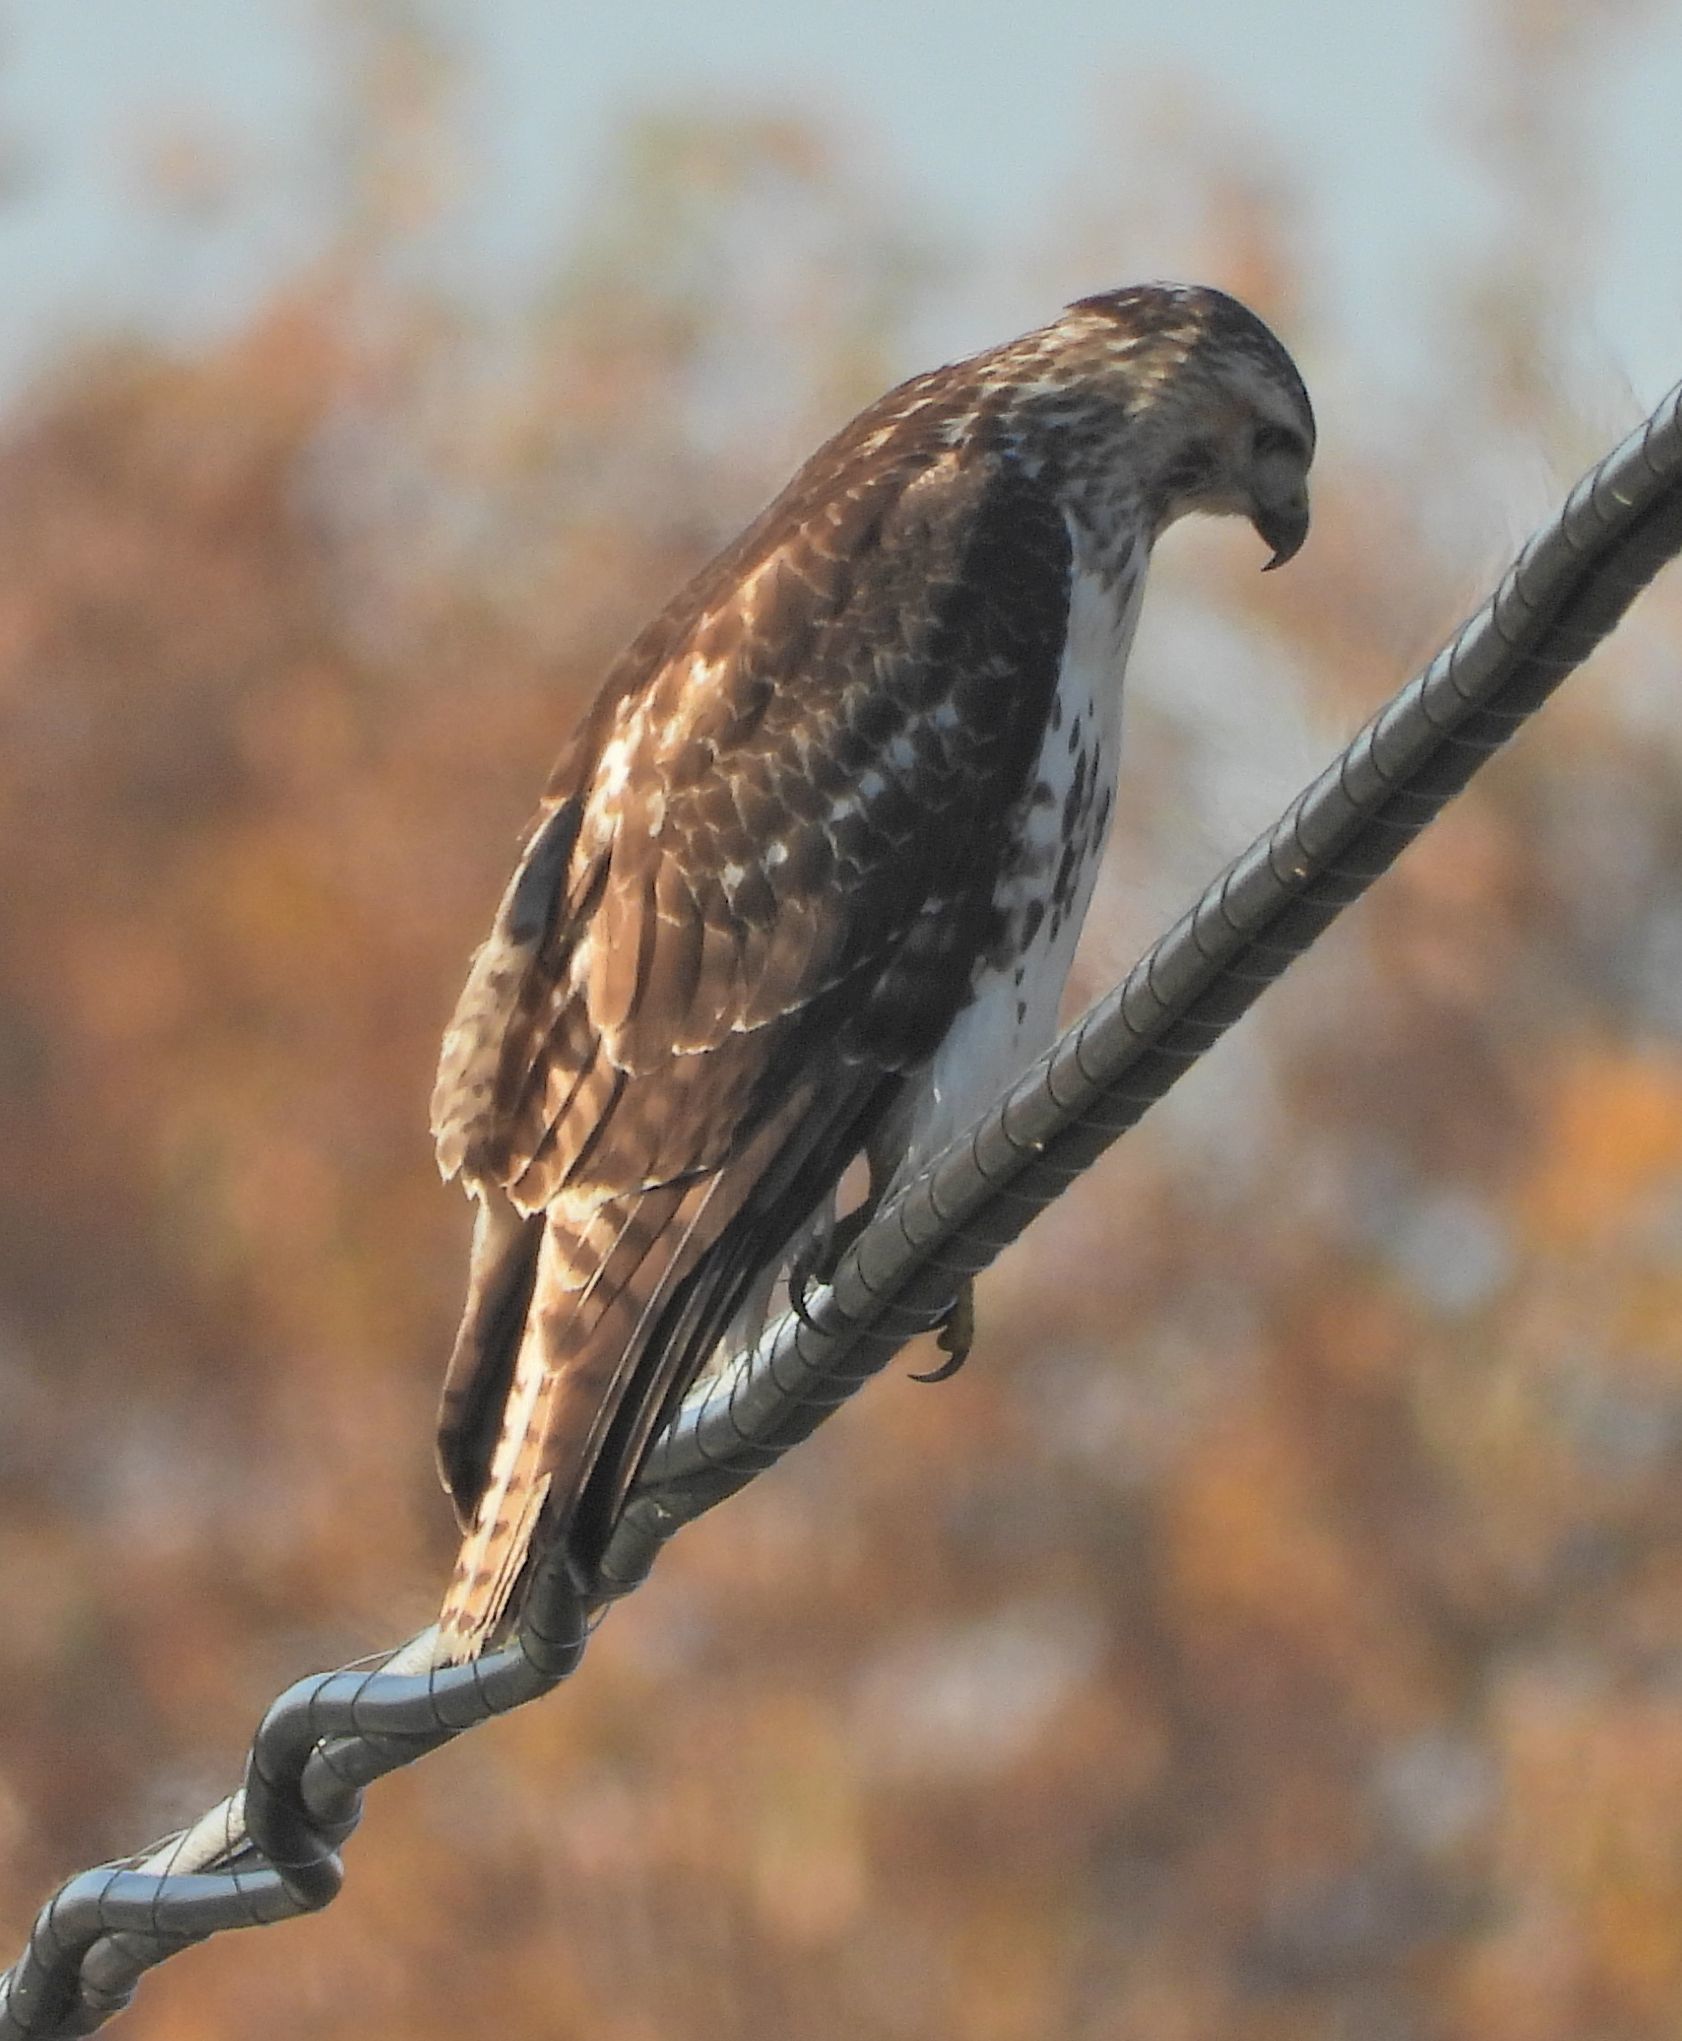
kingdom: Animalia
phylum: Chordata
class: Aves
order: Accipitriformes
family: Accipitridae
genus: Buteo
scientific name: Buteo jamaicensis
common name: Red-tailed hawk
